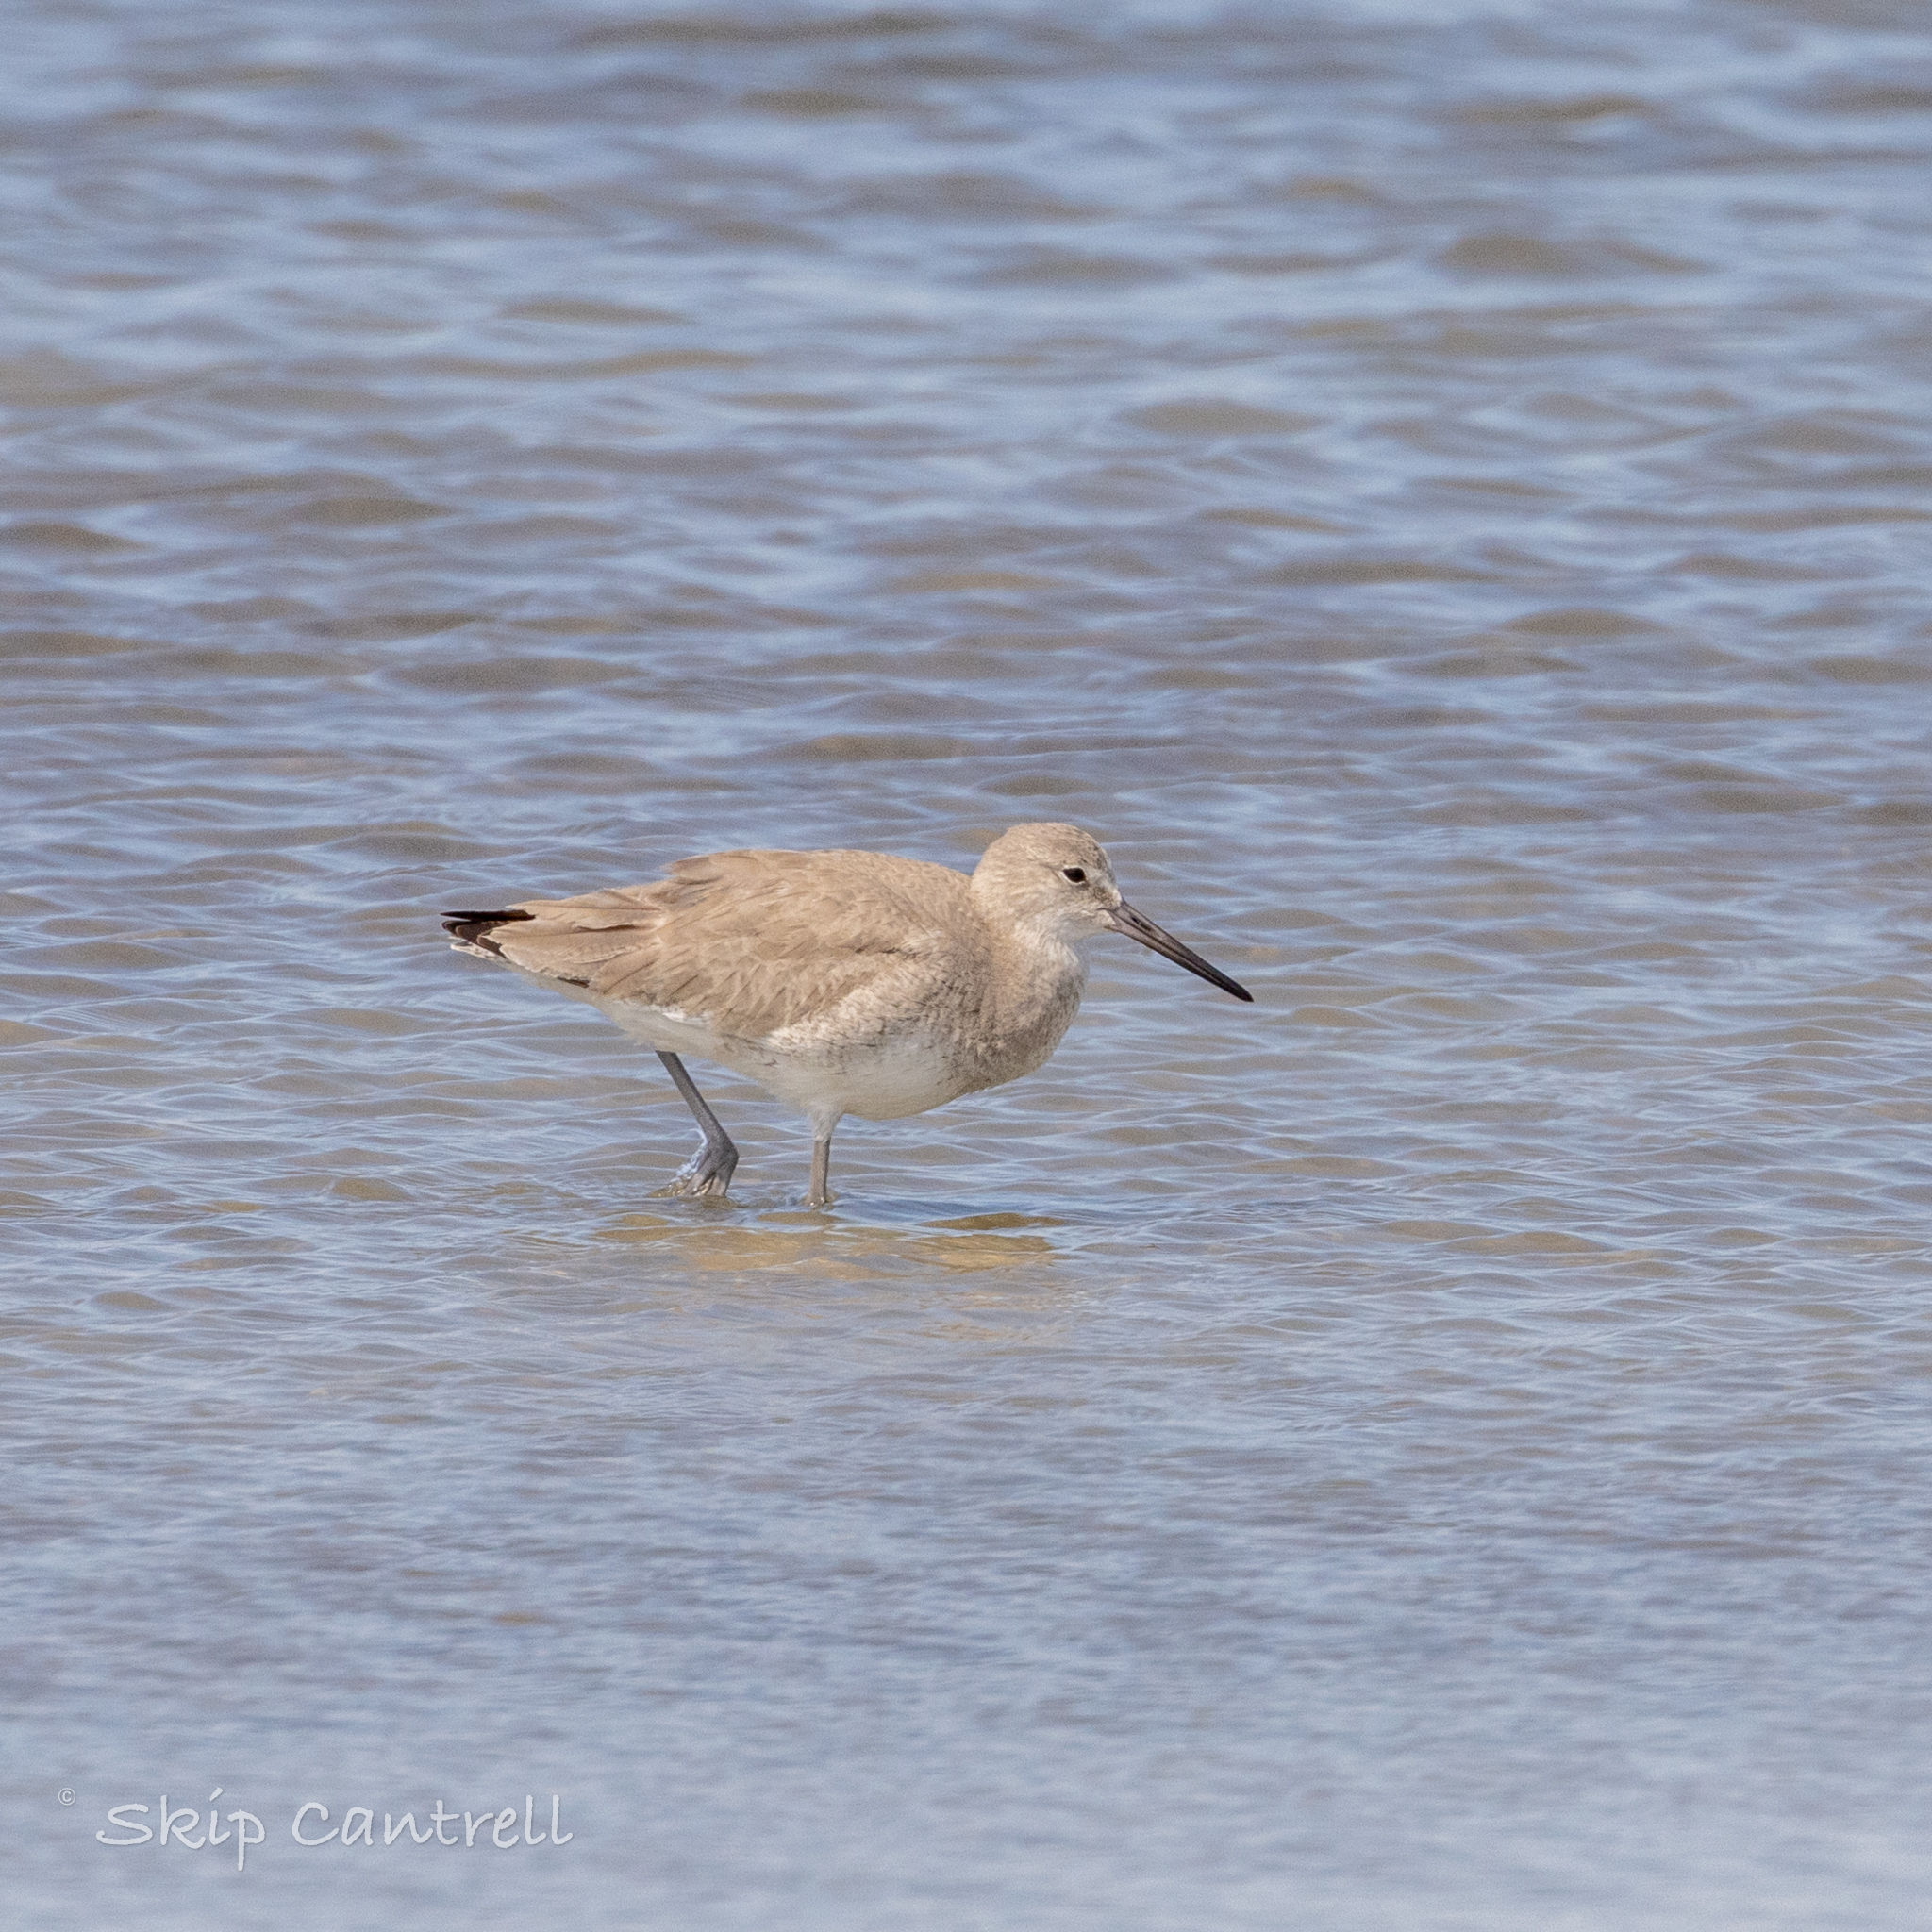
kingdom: Animalia
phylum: Chordata
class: Aves
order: Charadriiformes
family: Scolopacidae
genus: Tringa
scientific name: Tringa semipalmata
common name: Willet
